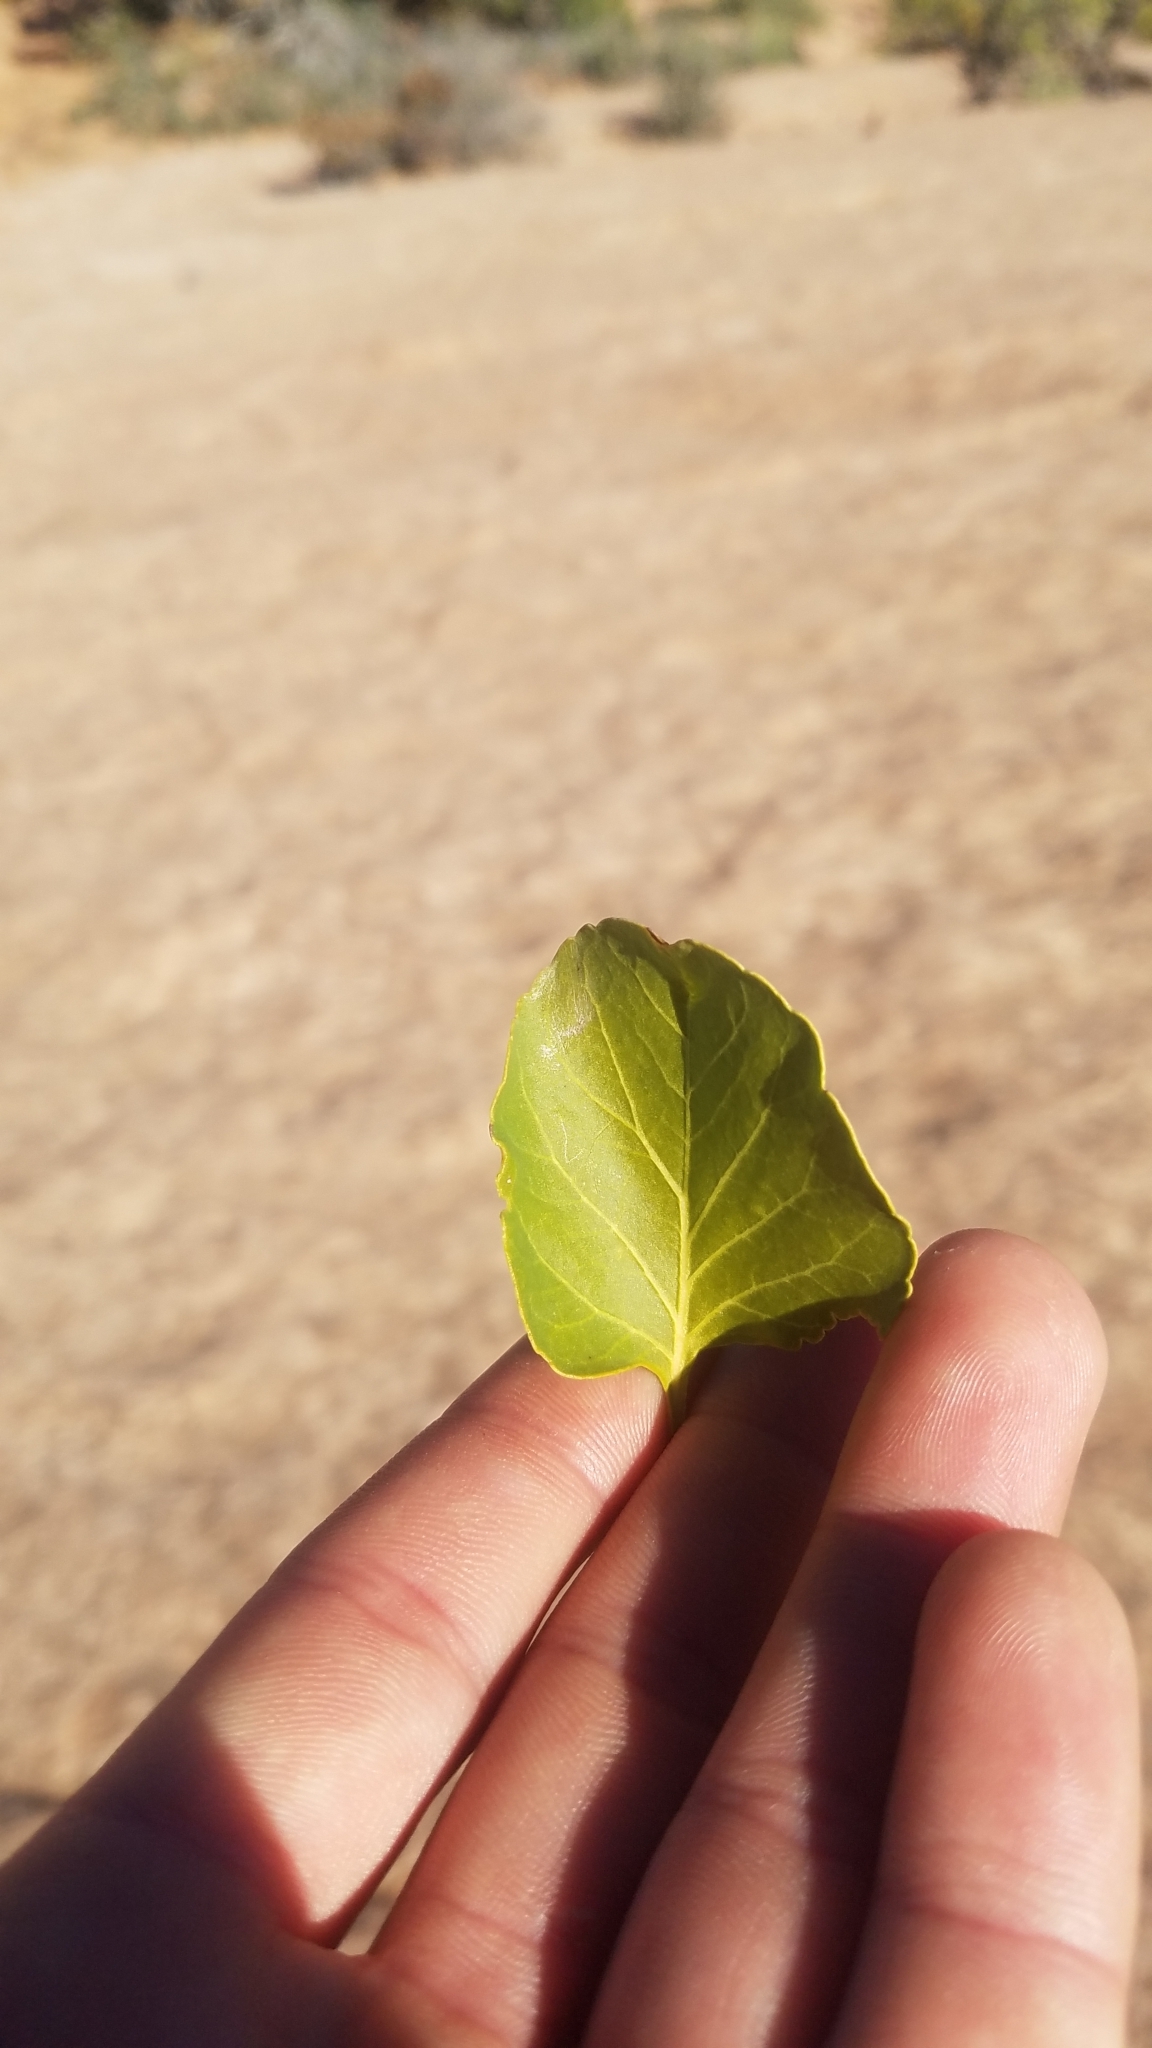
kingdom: Plantae
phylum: Tracheophyta
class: Magnoliopsida
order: Lamiales
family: Oleaceae
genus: Fraxinus
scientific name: Fraxinus anomala
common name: Utah ash
